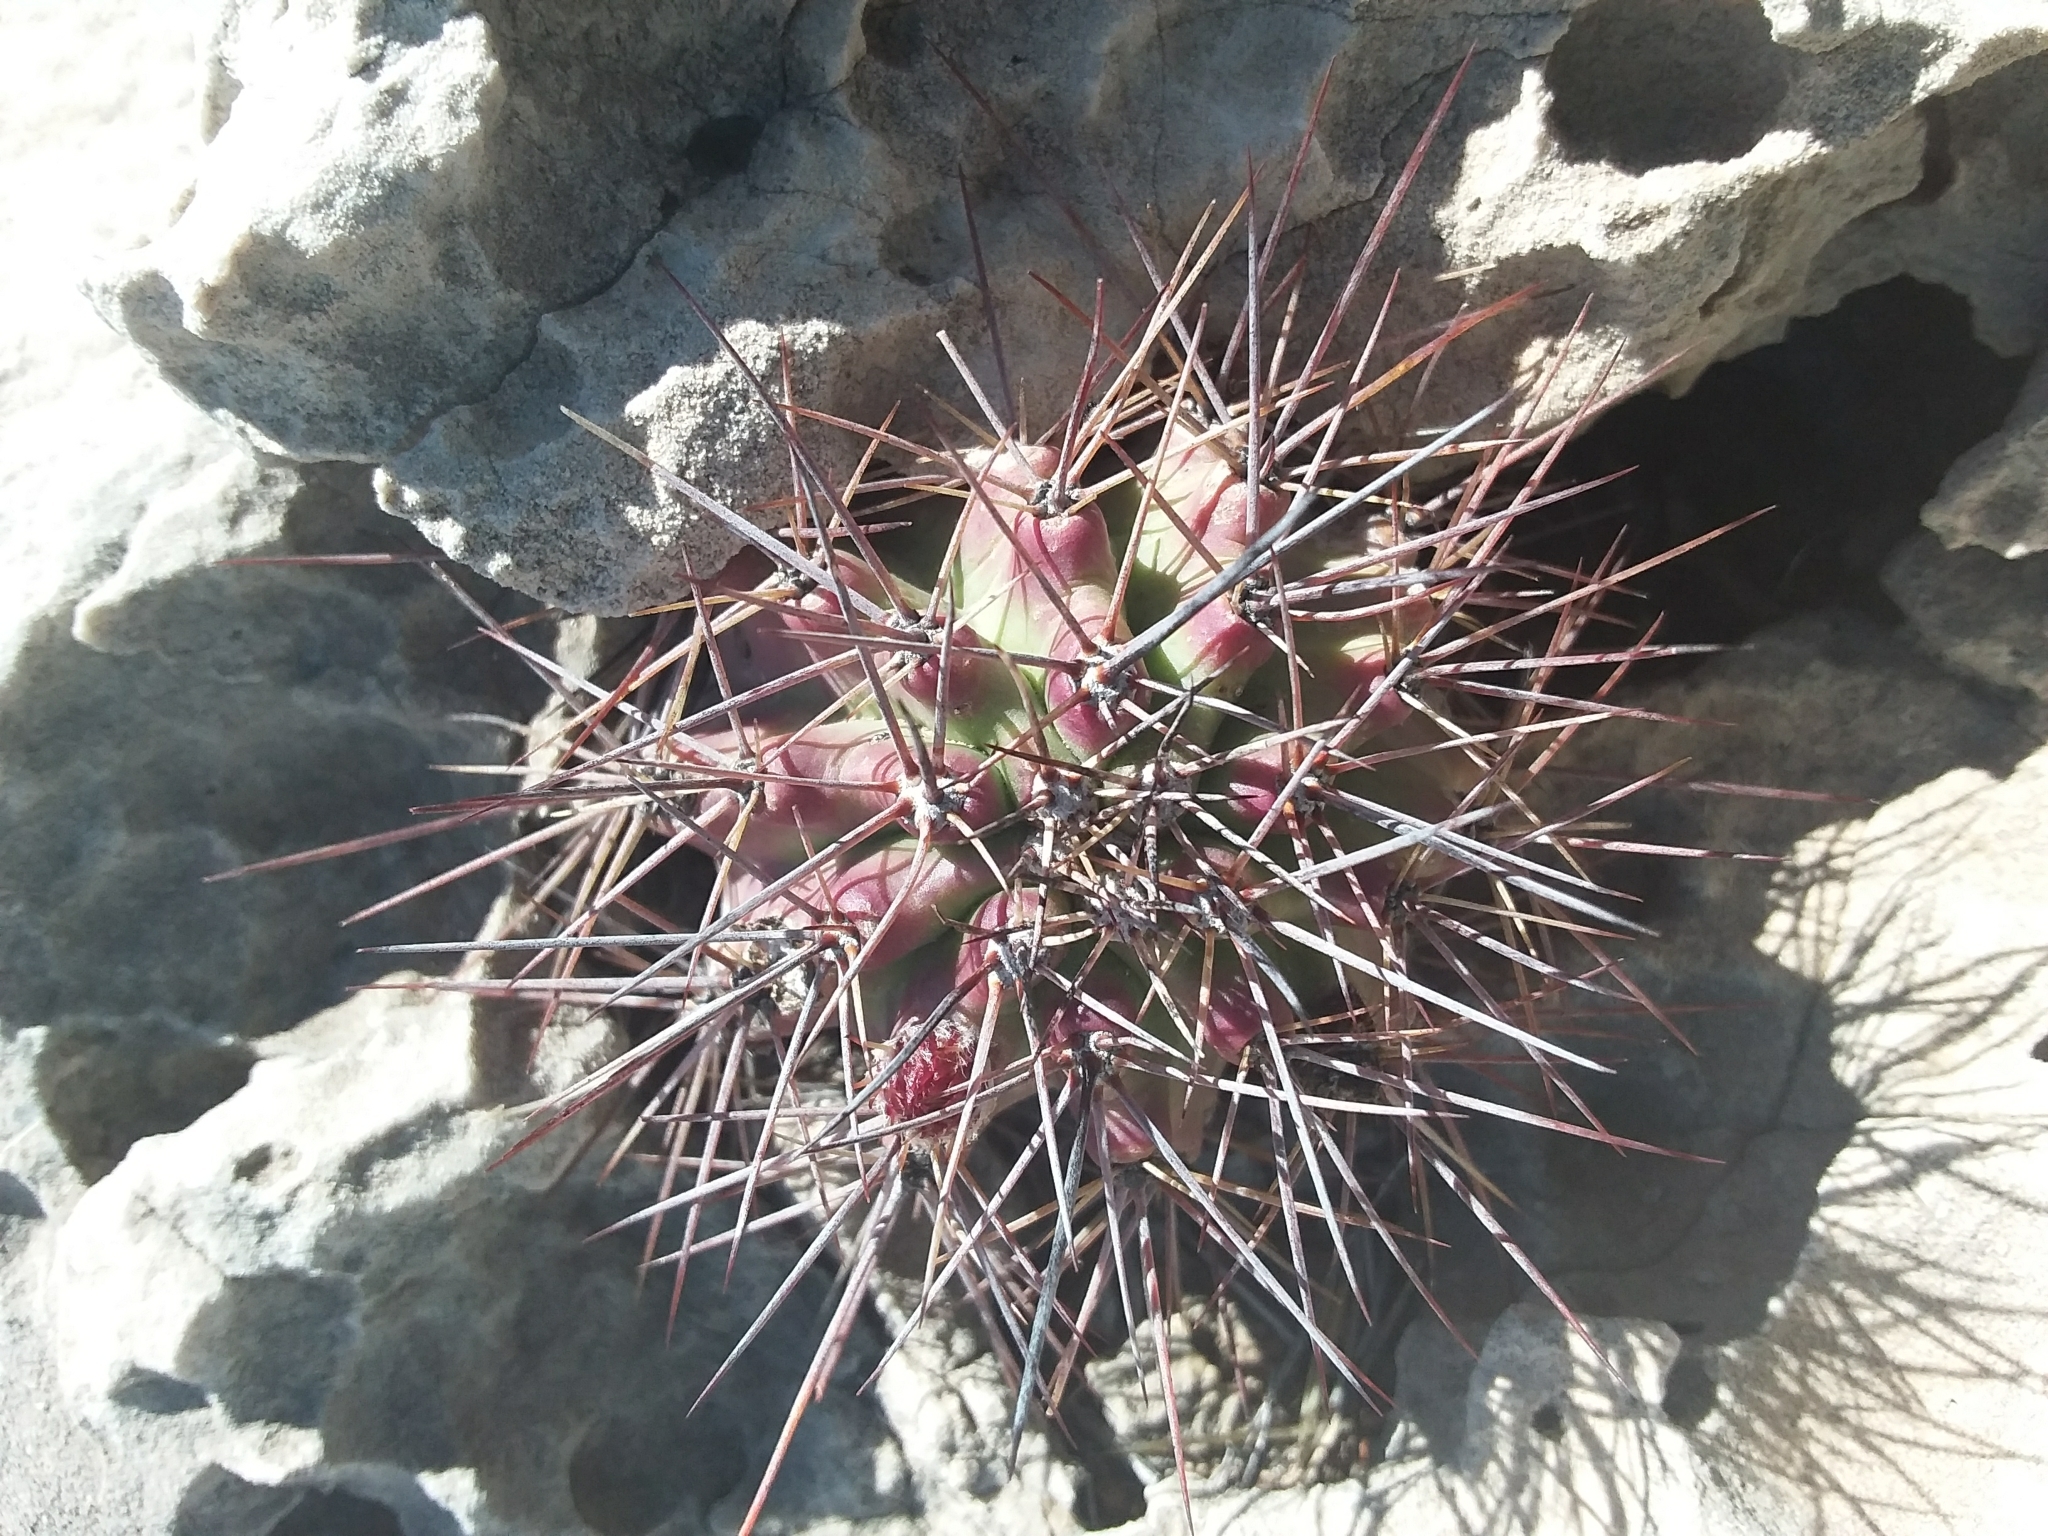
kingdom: Plantae
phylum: Tracheophyta
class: Magnoliopsida
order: Caryophyllales
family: Cactaceae
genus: Echinocereus
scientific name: Echinocereus coccineus
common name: Scarlet hedgehog cactus
